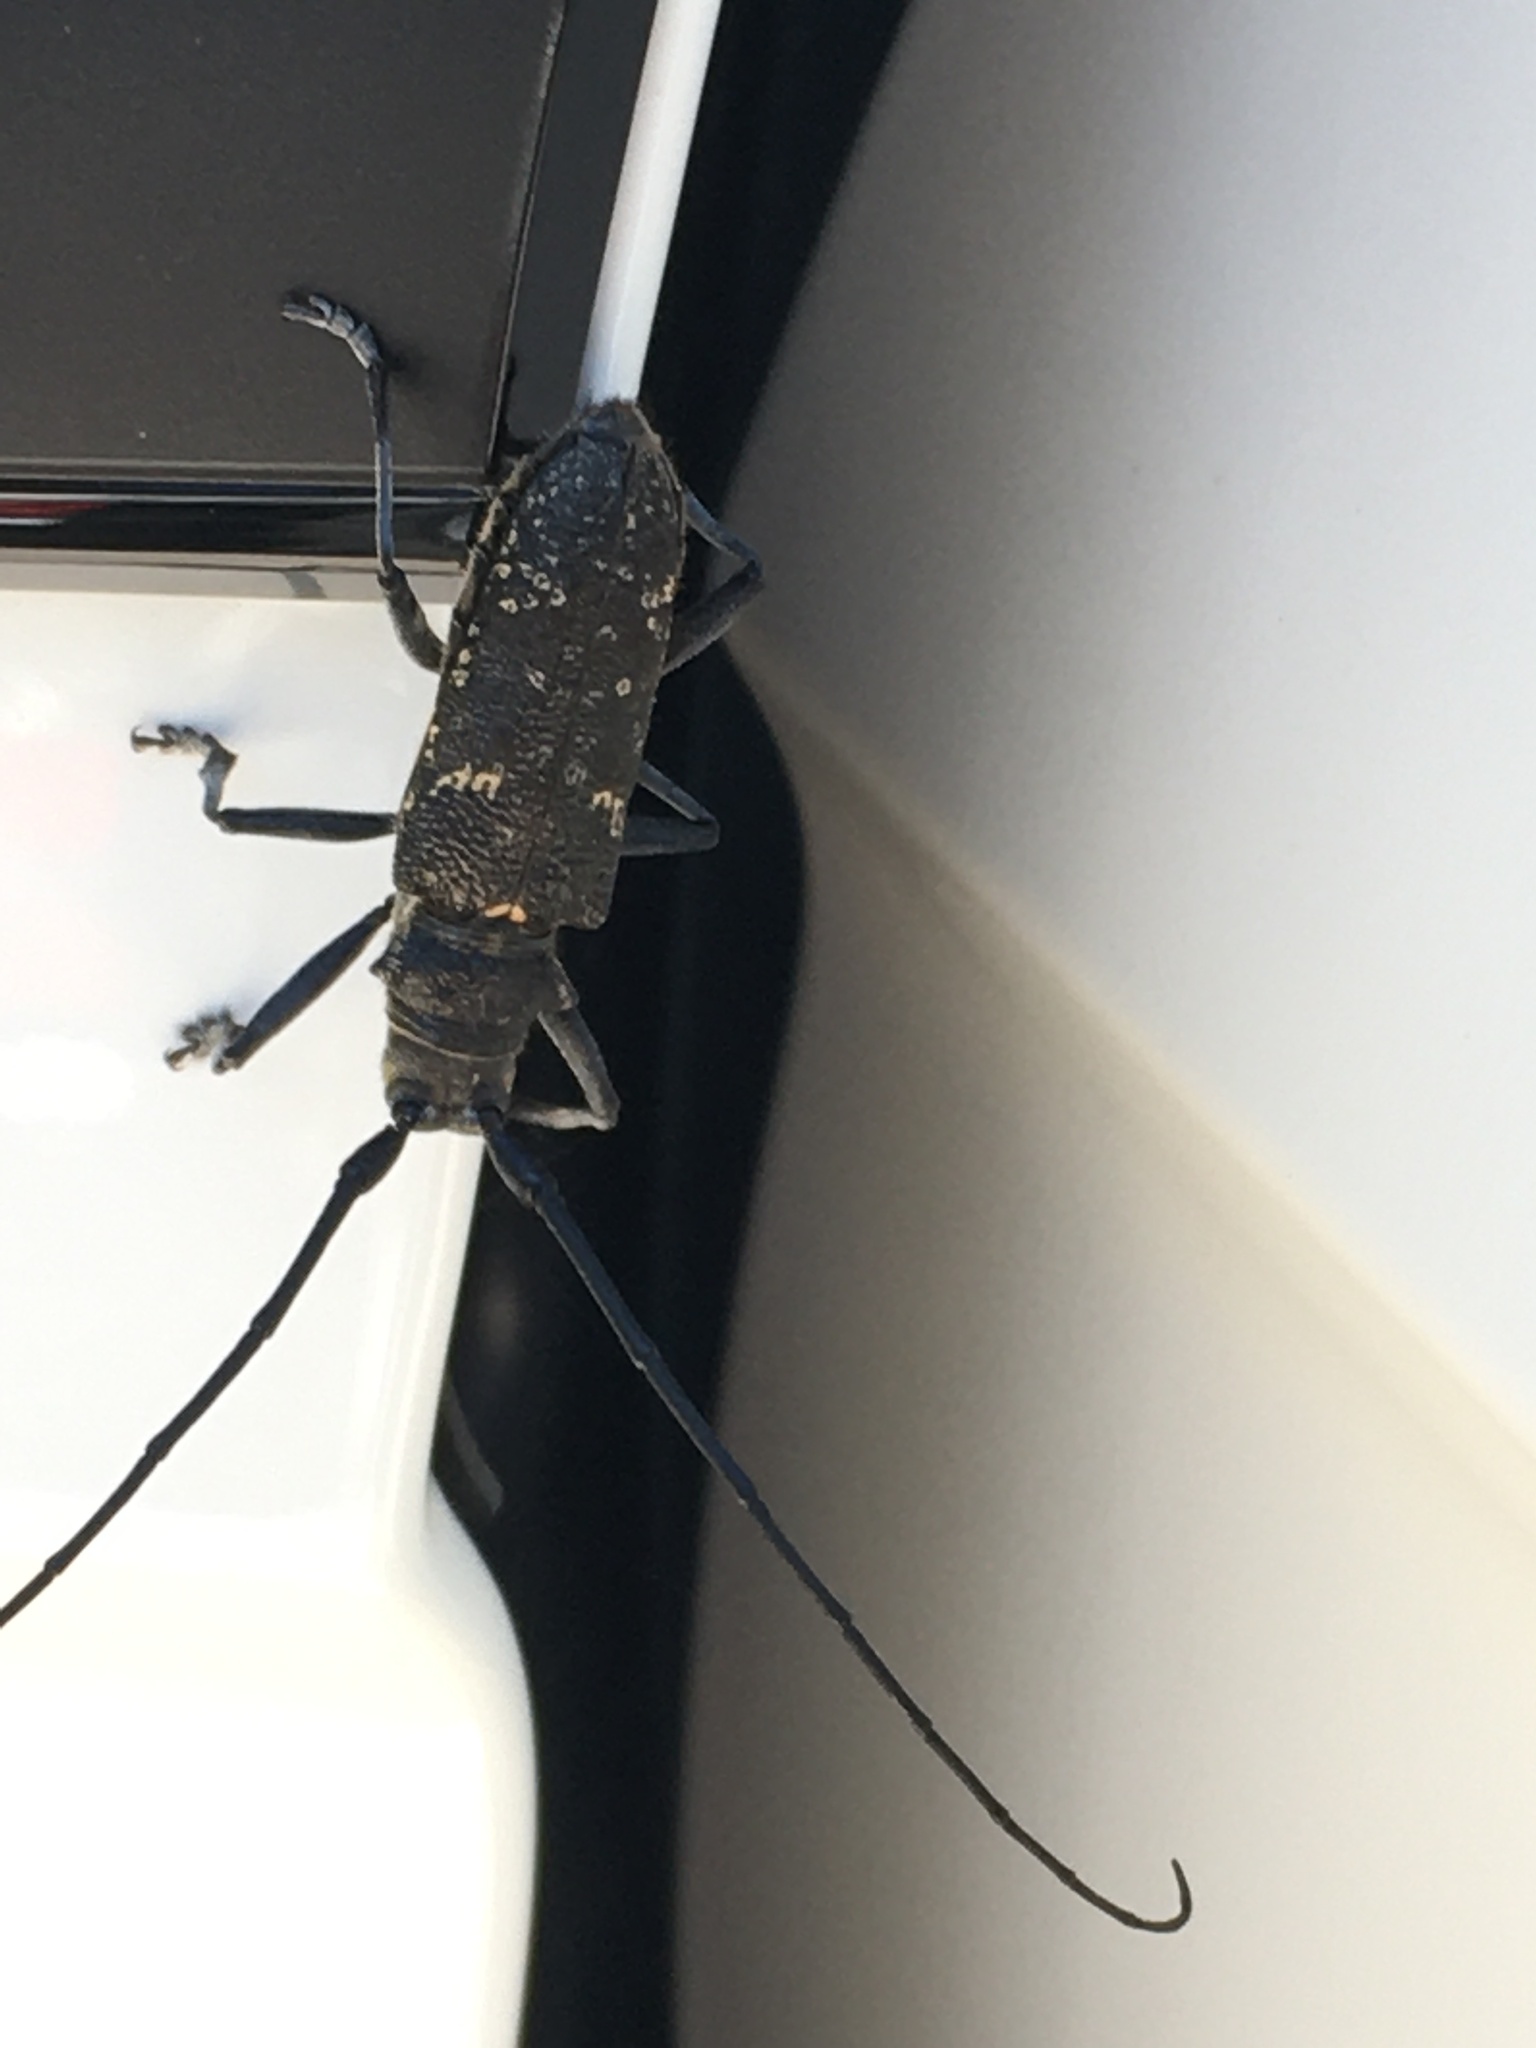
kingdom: Animalia
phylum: Arthropoda
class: Insecta
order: Coleoptera
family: Cerambycidae
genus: Monochamus
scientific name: Monochamus sutor
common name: Pine sawyer
